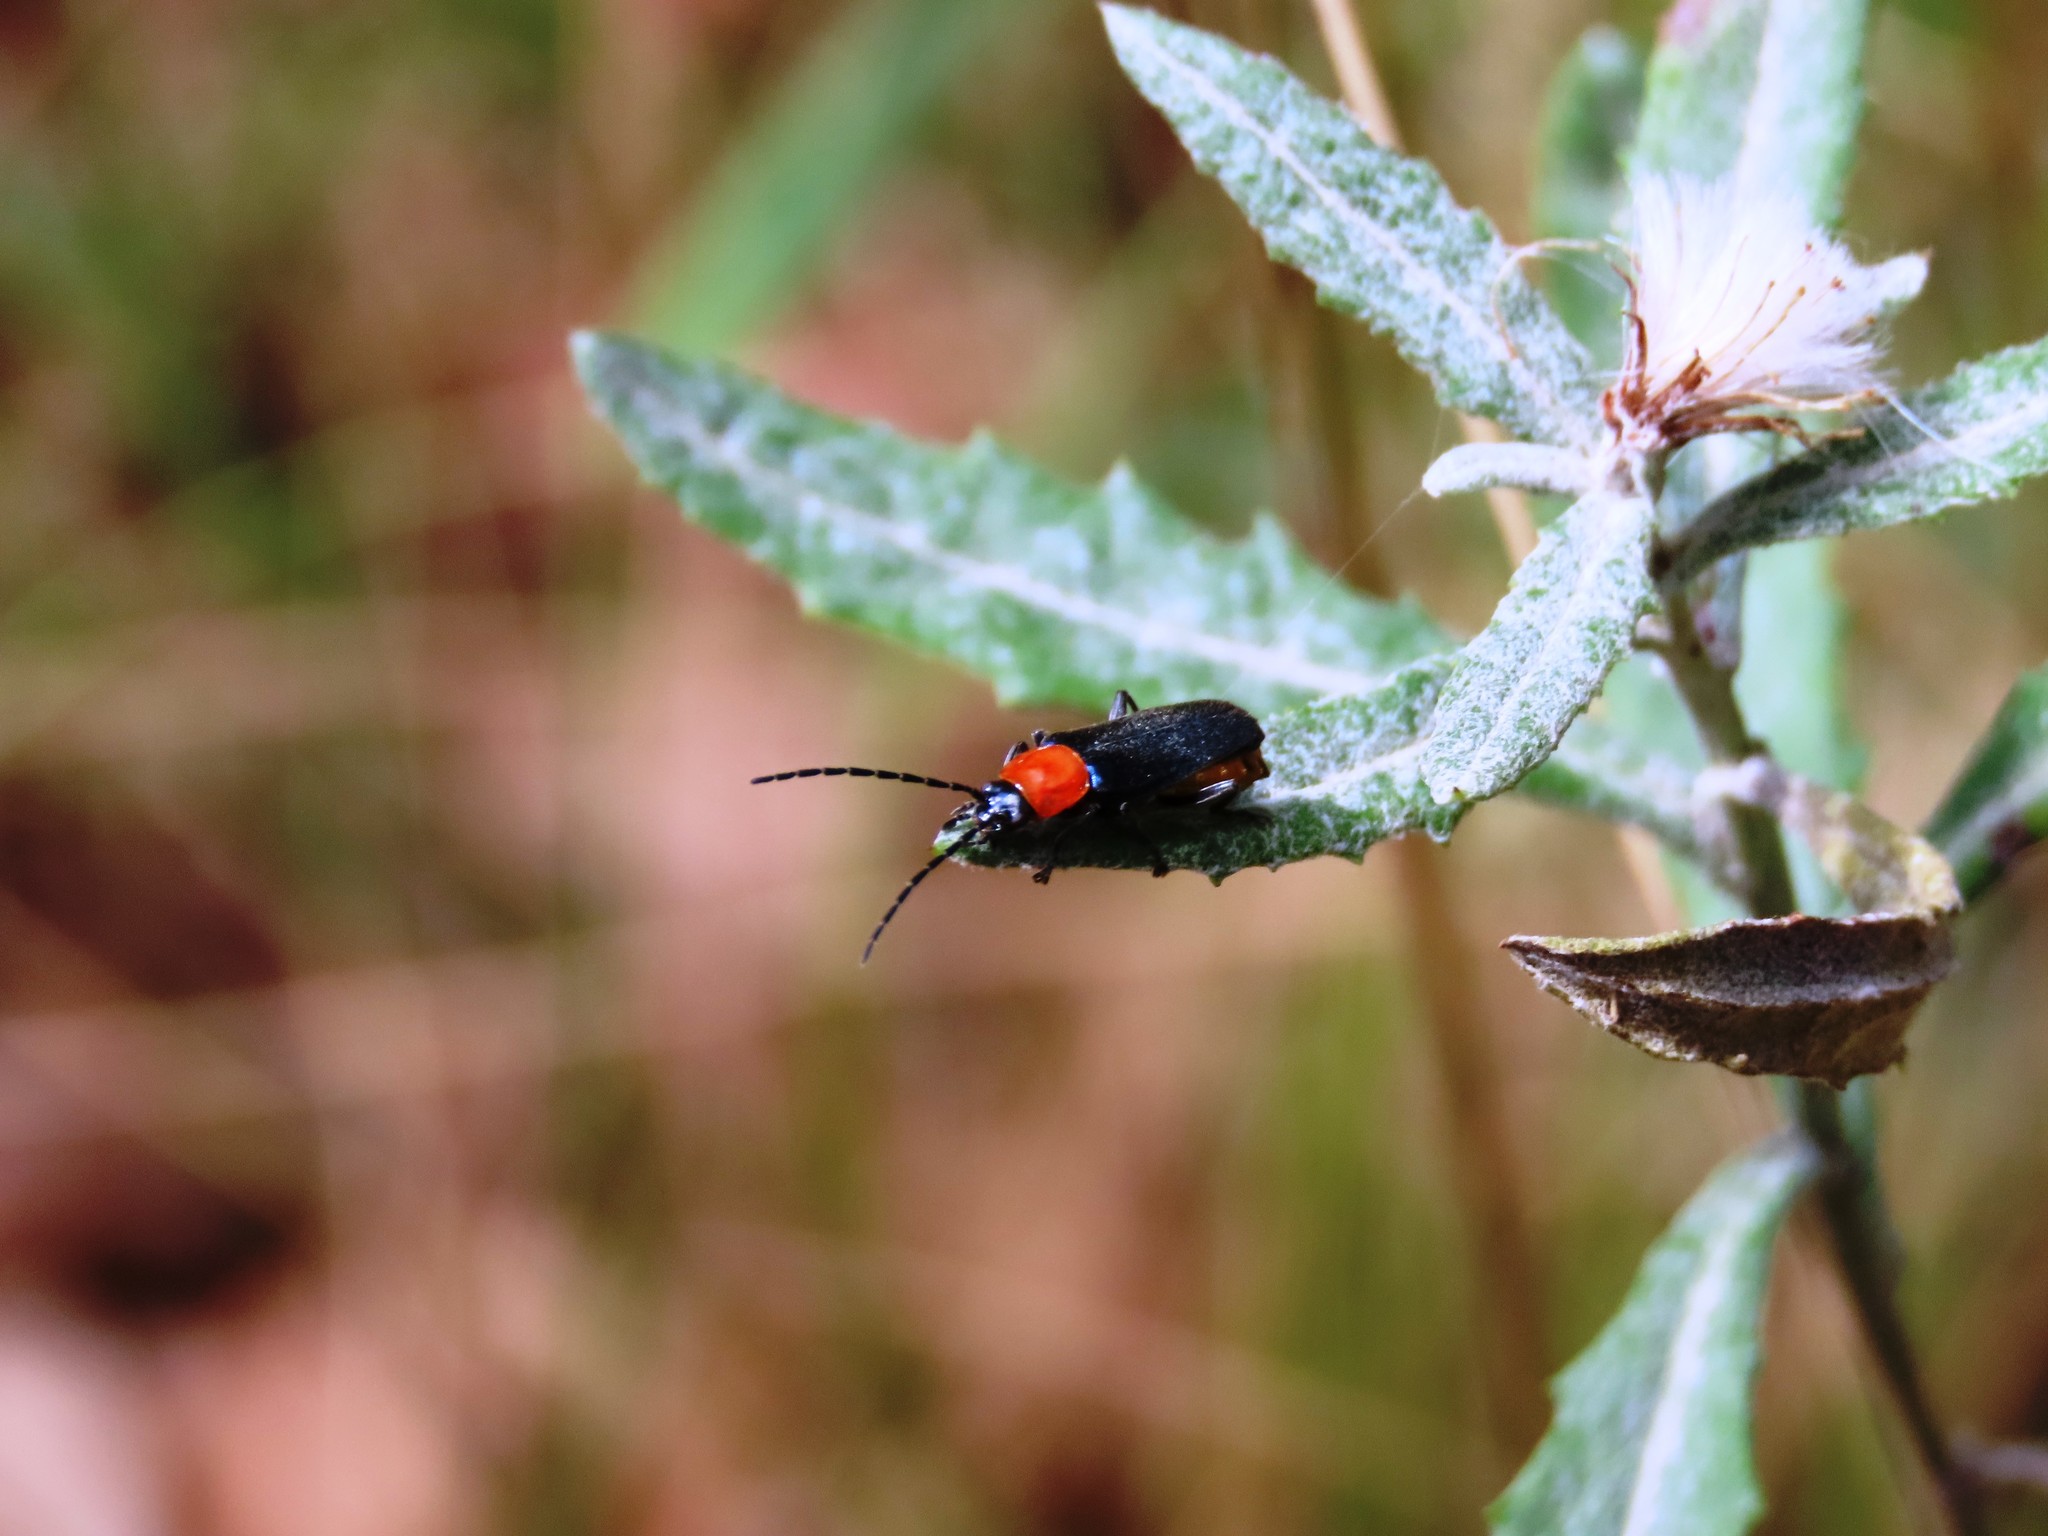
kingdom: Animalia
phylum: Arthropoda
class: Insecta
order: Coleoptera
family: Cantharidae
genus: Chauliognathus
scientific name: Chauliognathus
